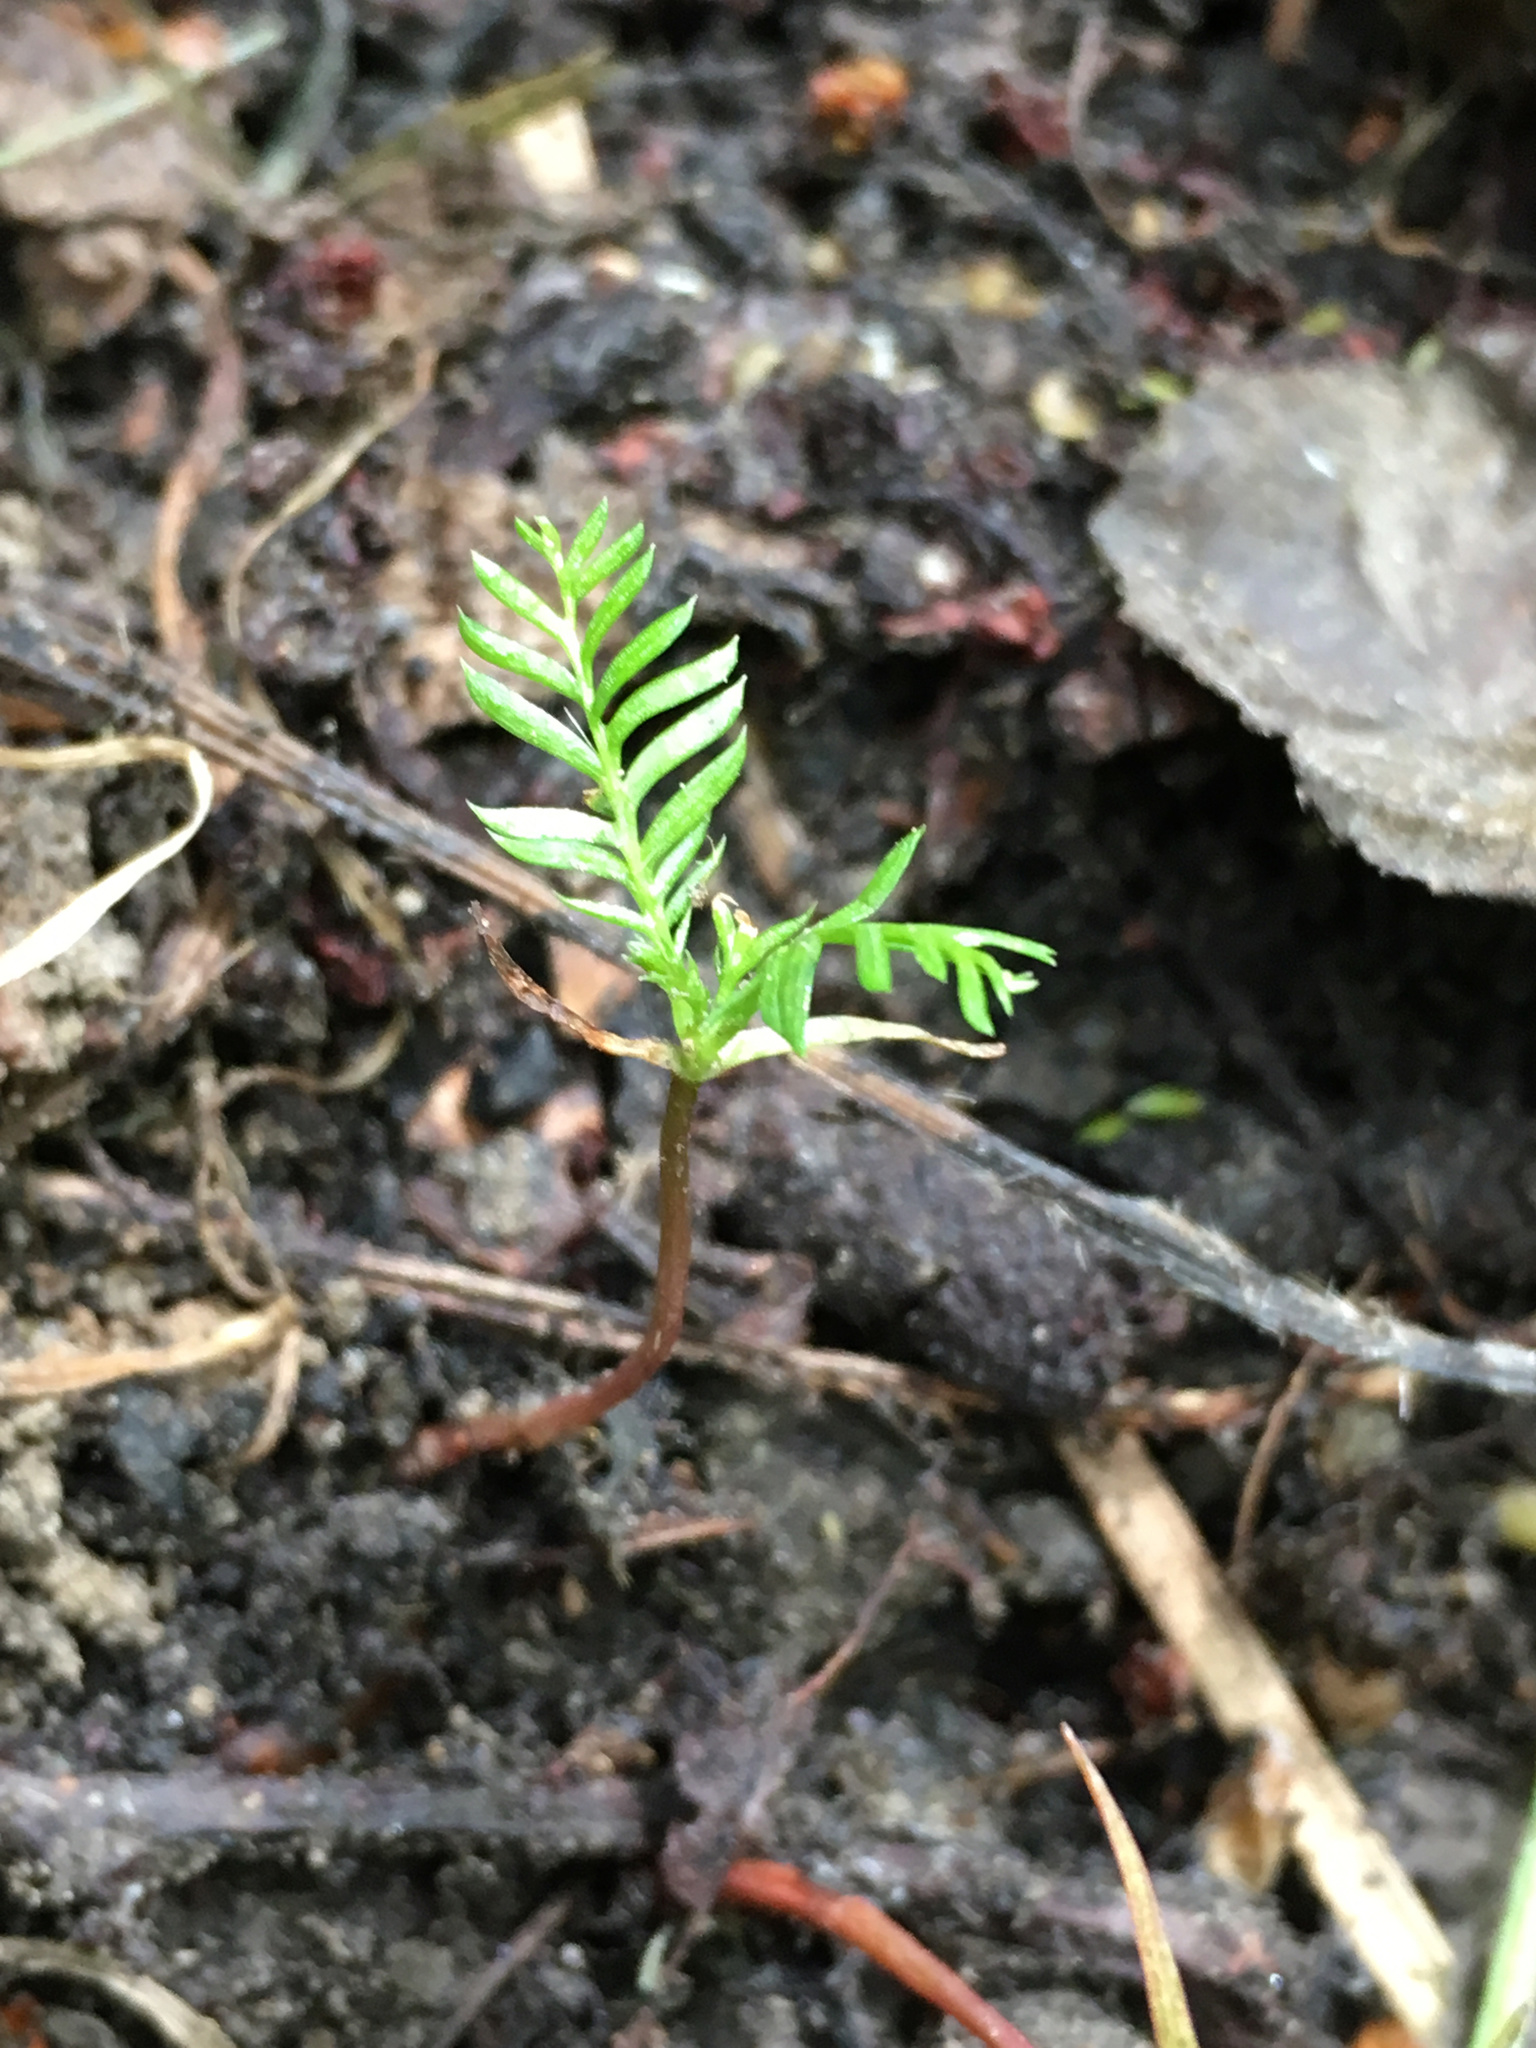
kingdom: Plantae
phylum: Tracheophyta
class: Pinopsida
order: Pinales
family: Podocarpaceae
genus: Dacrycarpus
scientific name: Dacrycarpus dacrydioides
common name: White pine
